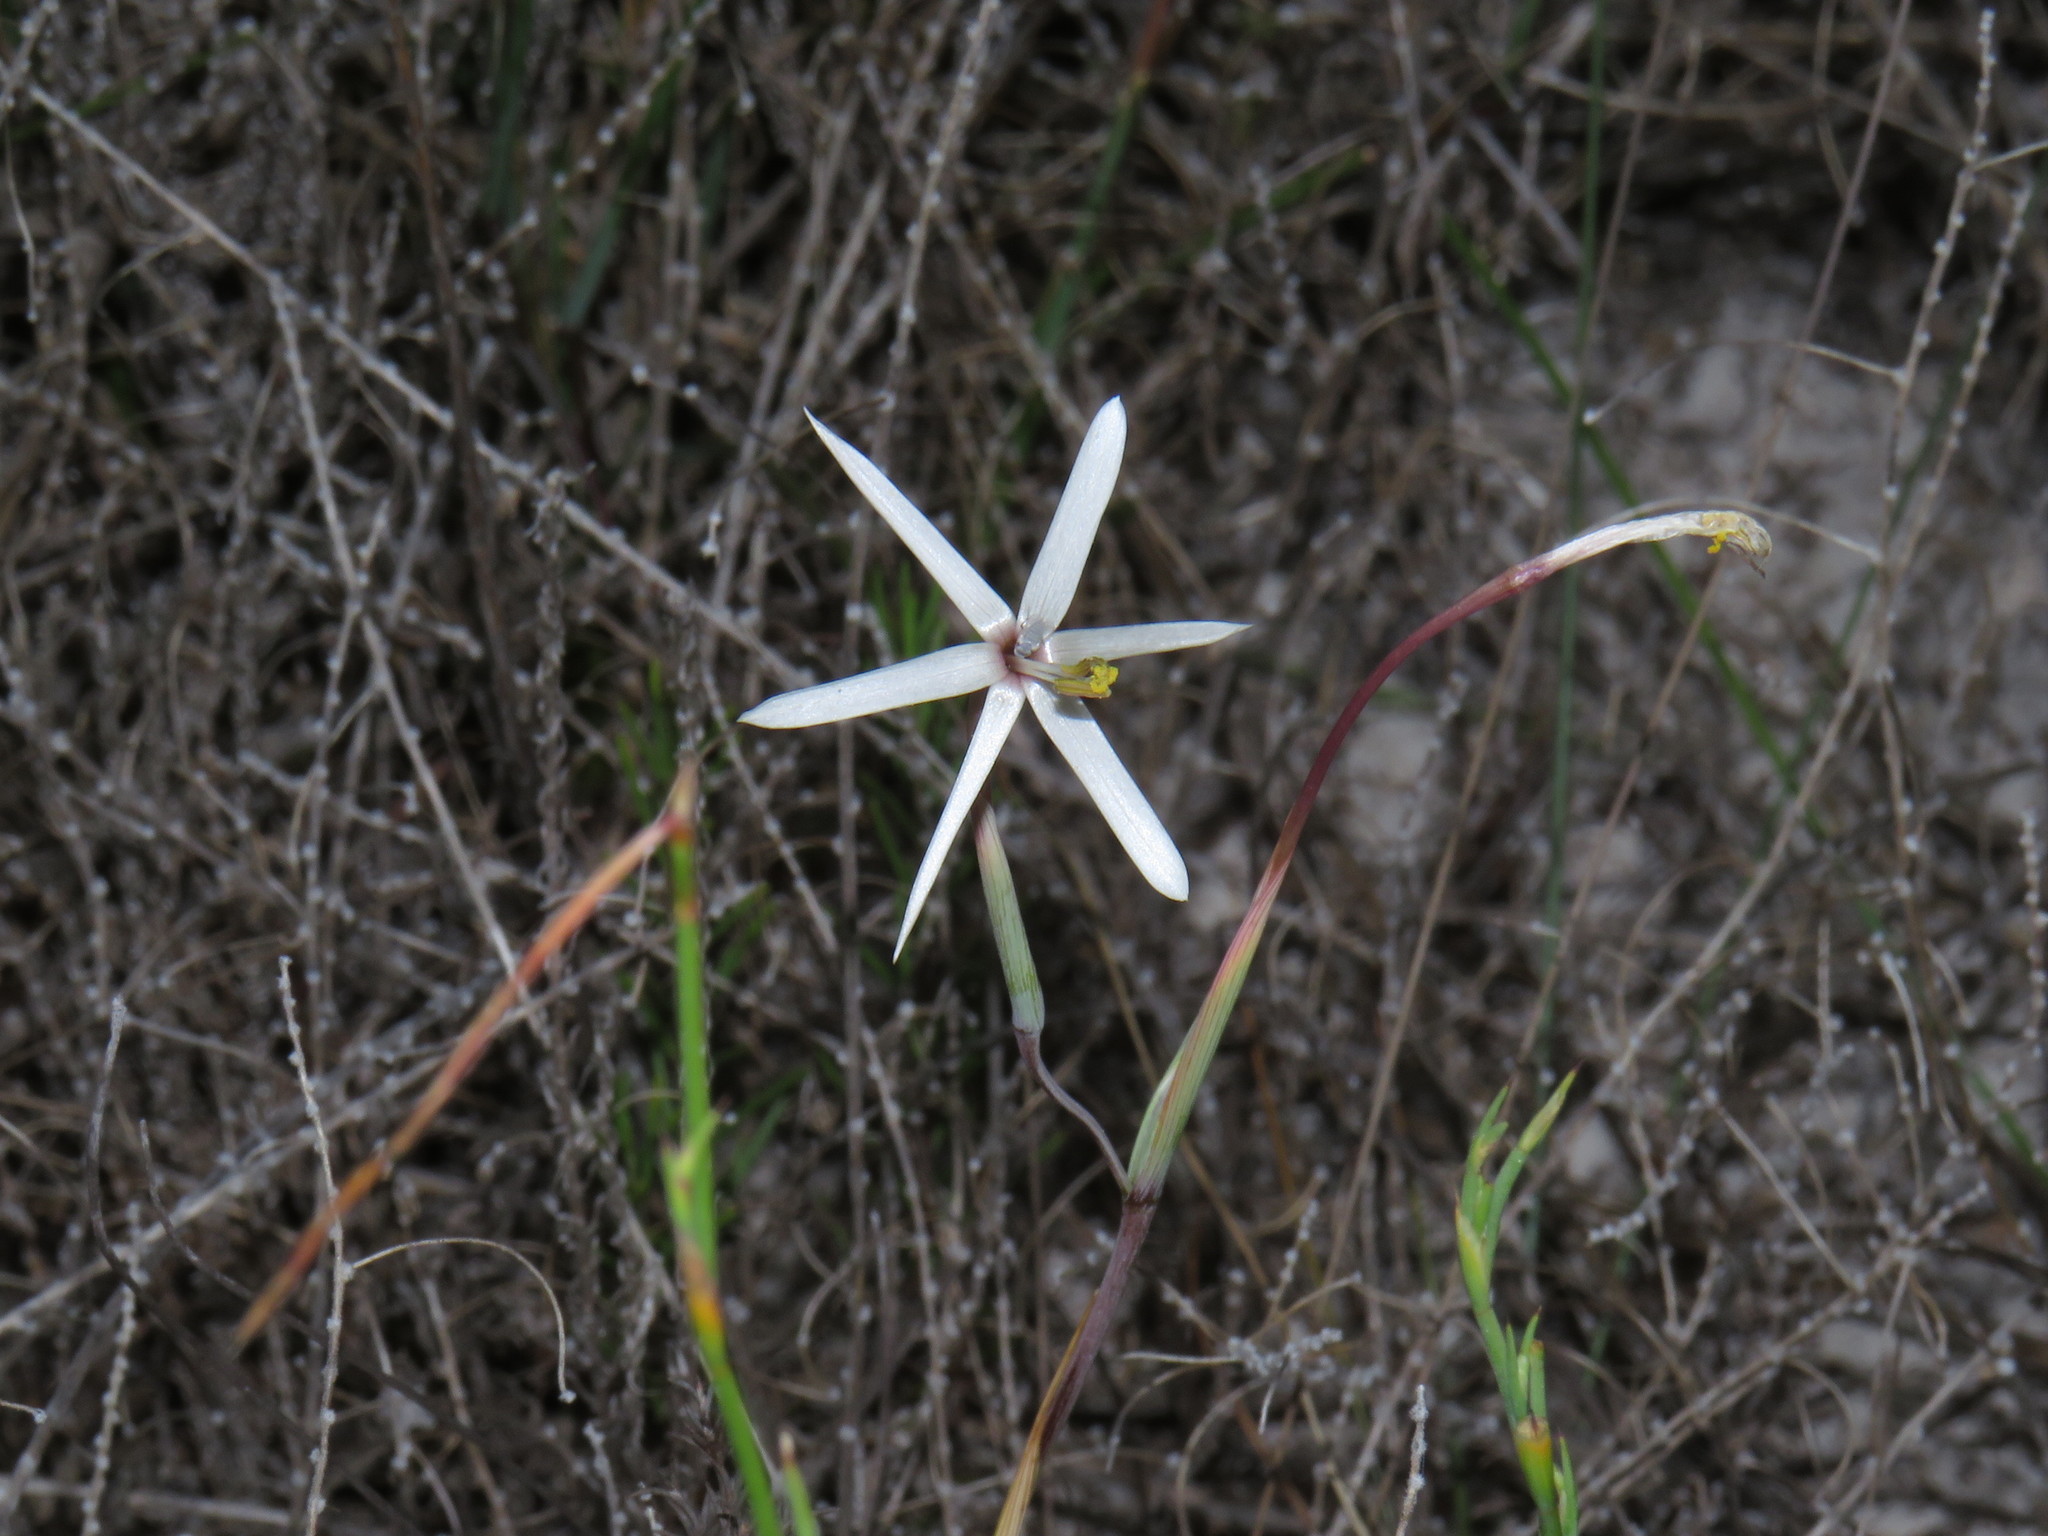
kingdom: Plantae
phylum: Tracheophyta
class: Liliopsida
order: Asparagales
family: Iridaceae
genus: Geissorhiza
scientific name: Geissorhiza tenella
